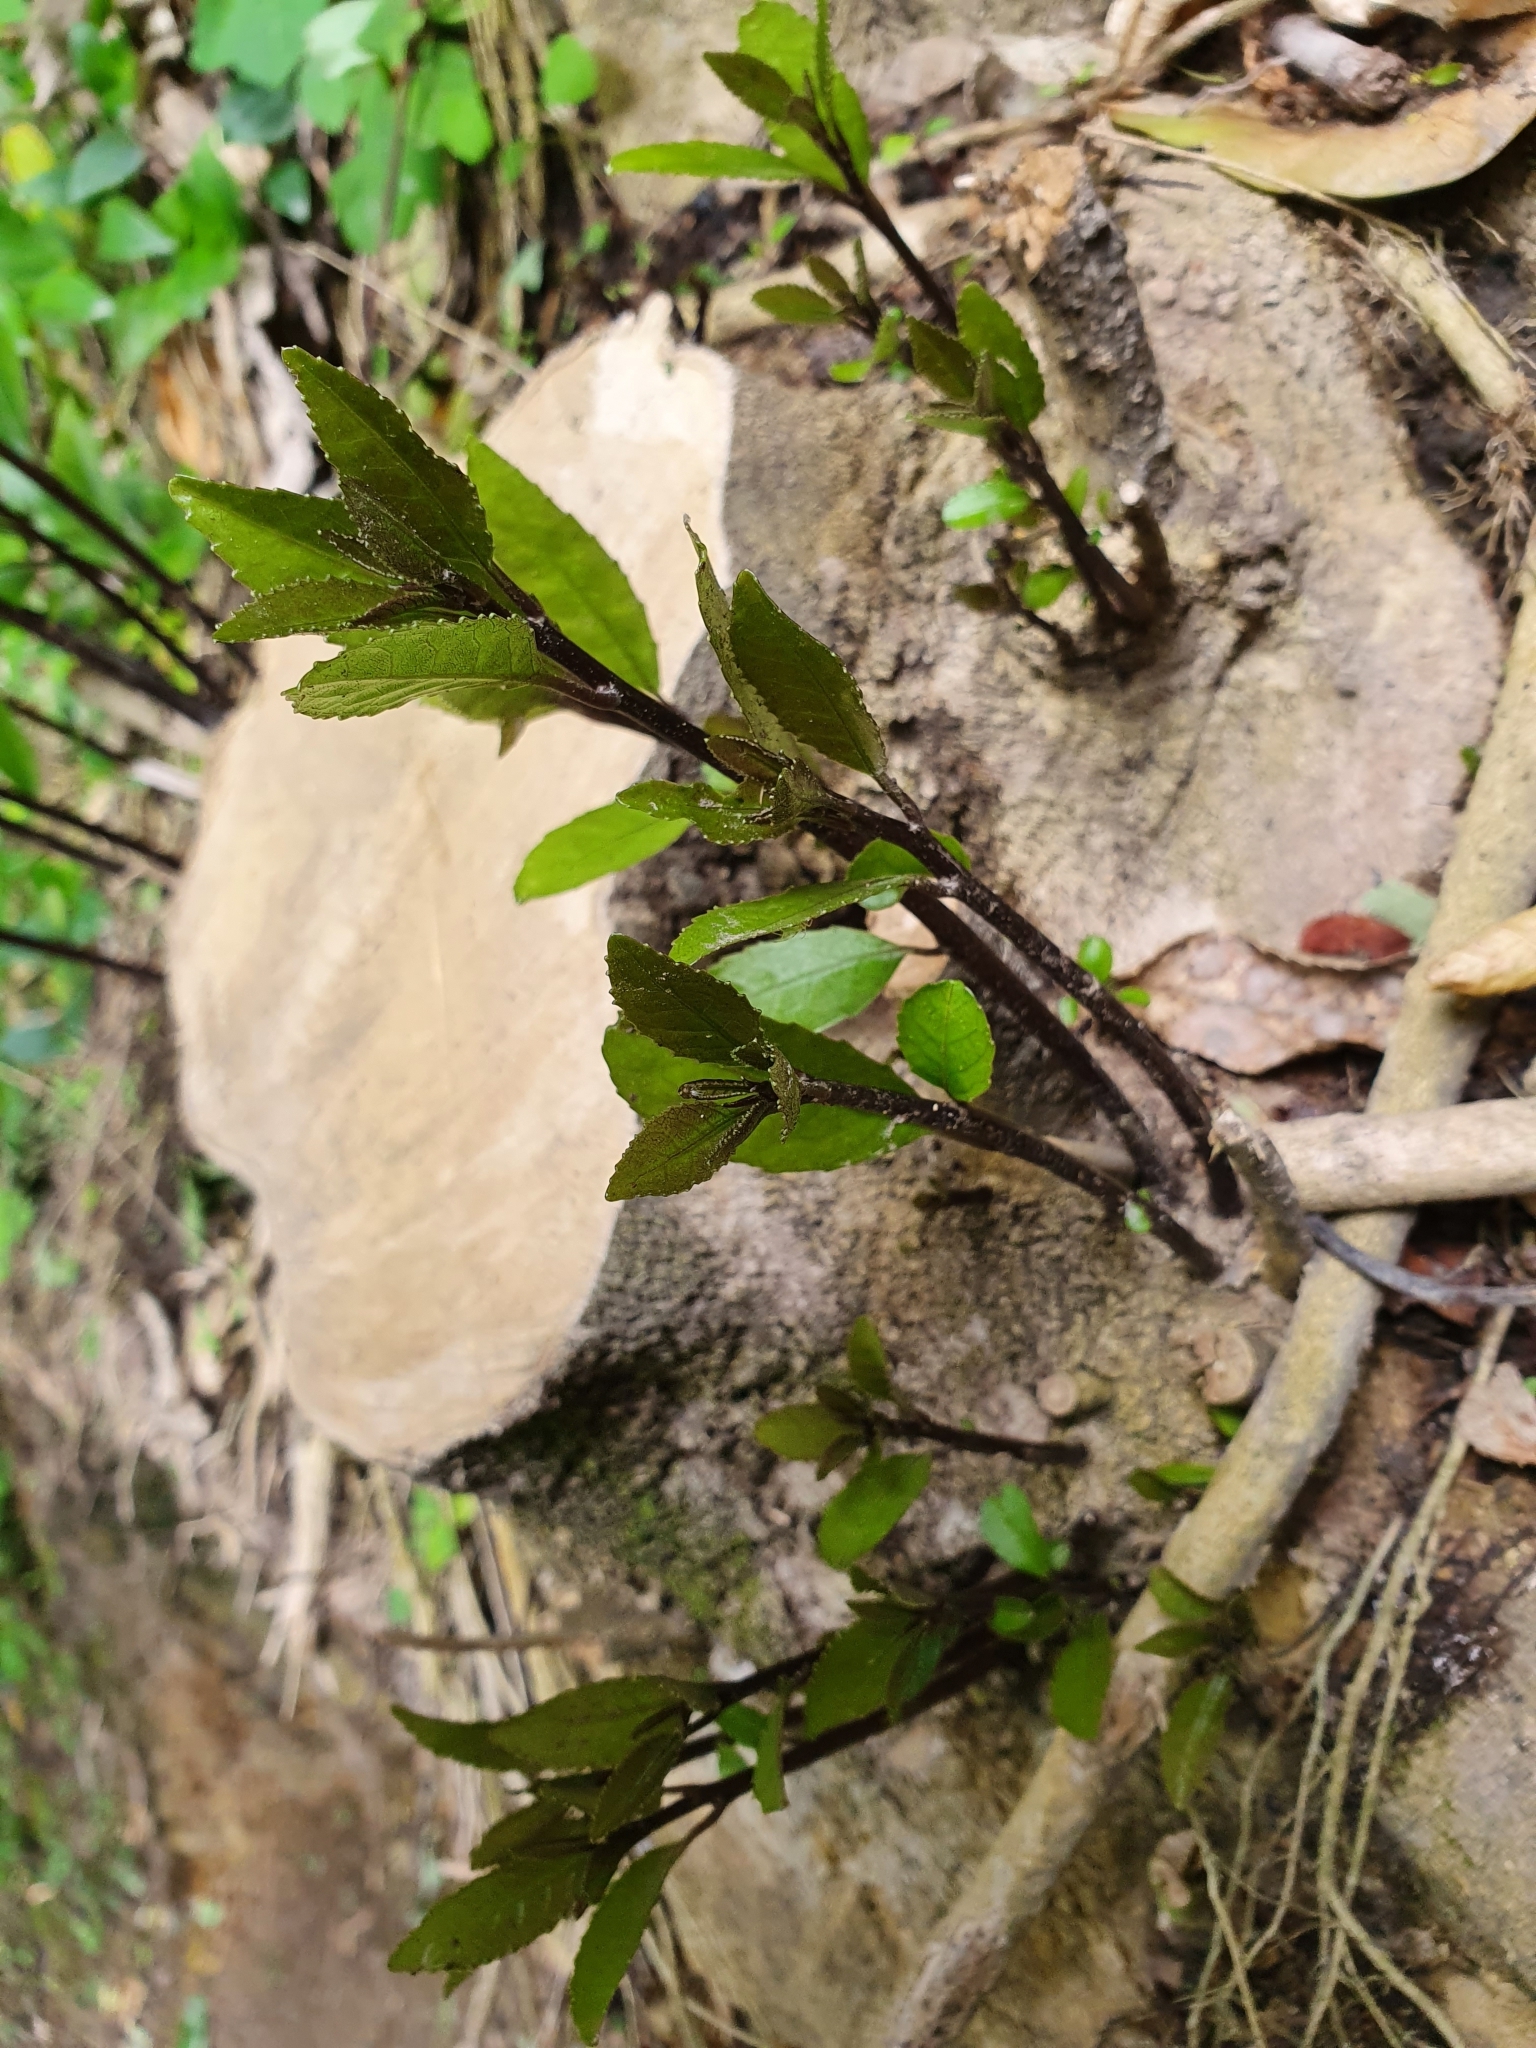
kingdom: Plantae
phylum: Tracheophyta
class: Magnoliopsida
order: Malpighiales
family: Violaceae
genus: Melicytus
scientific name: Melicytus ramiflorus
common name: Mahoe
